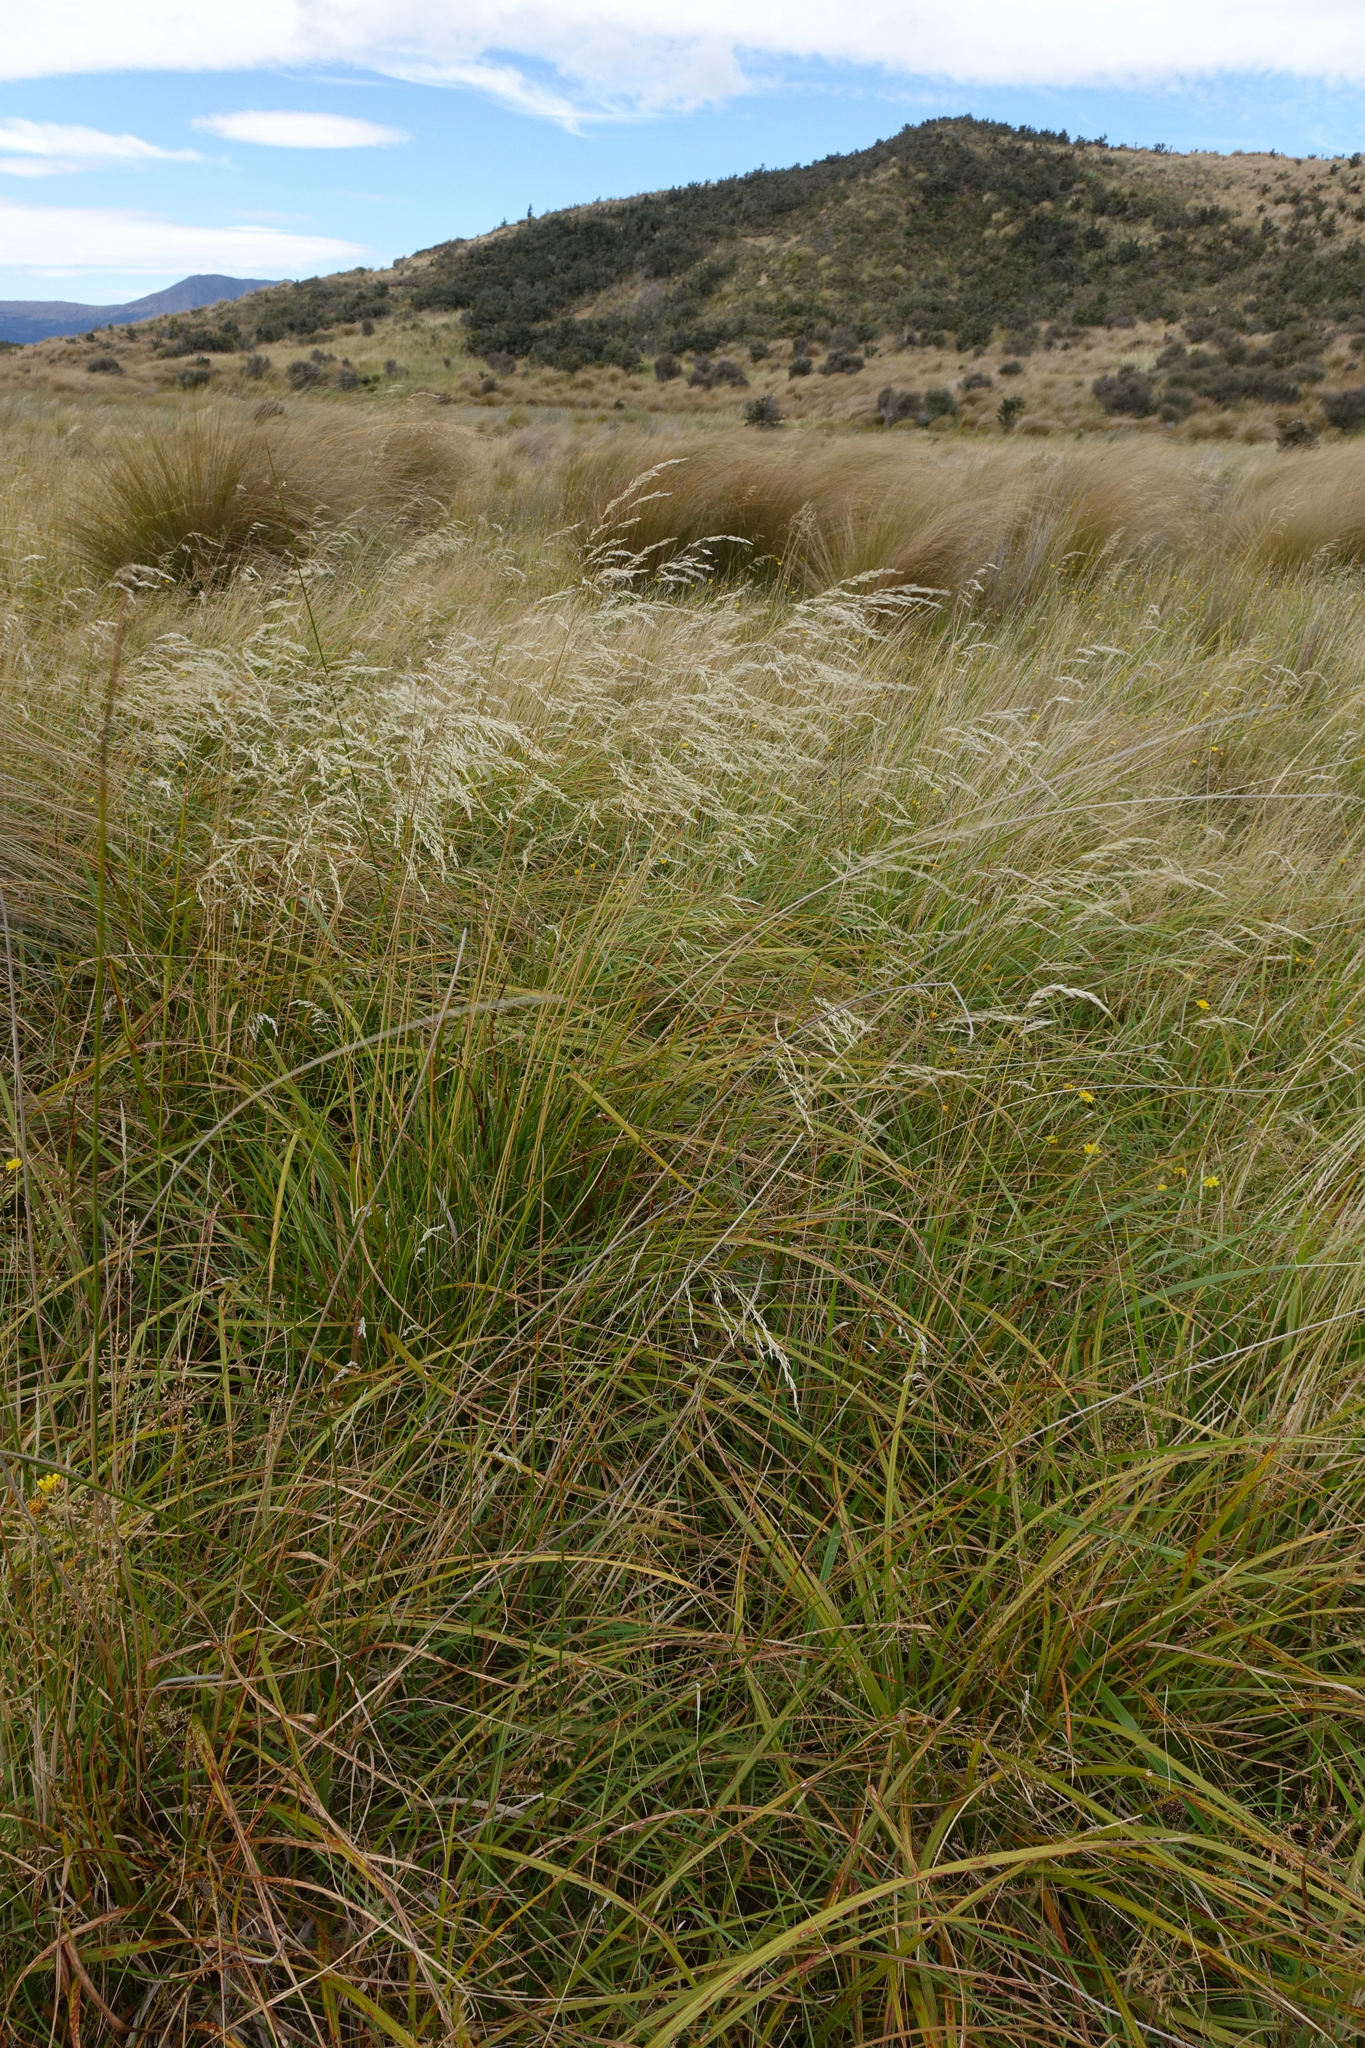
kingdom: Plantae
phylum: Tracheophyta
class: Liliopsida
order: Poales
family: Poaceae
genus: Deschampsia
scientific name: Deschampsia cespitosa
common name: Tufted hair-grass
